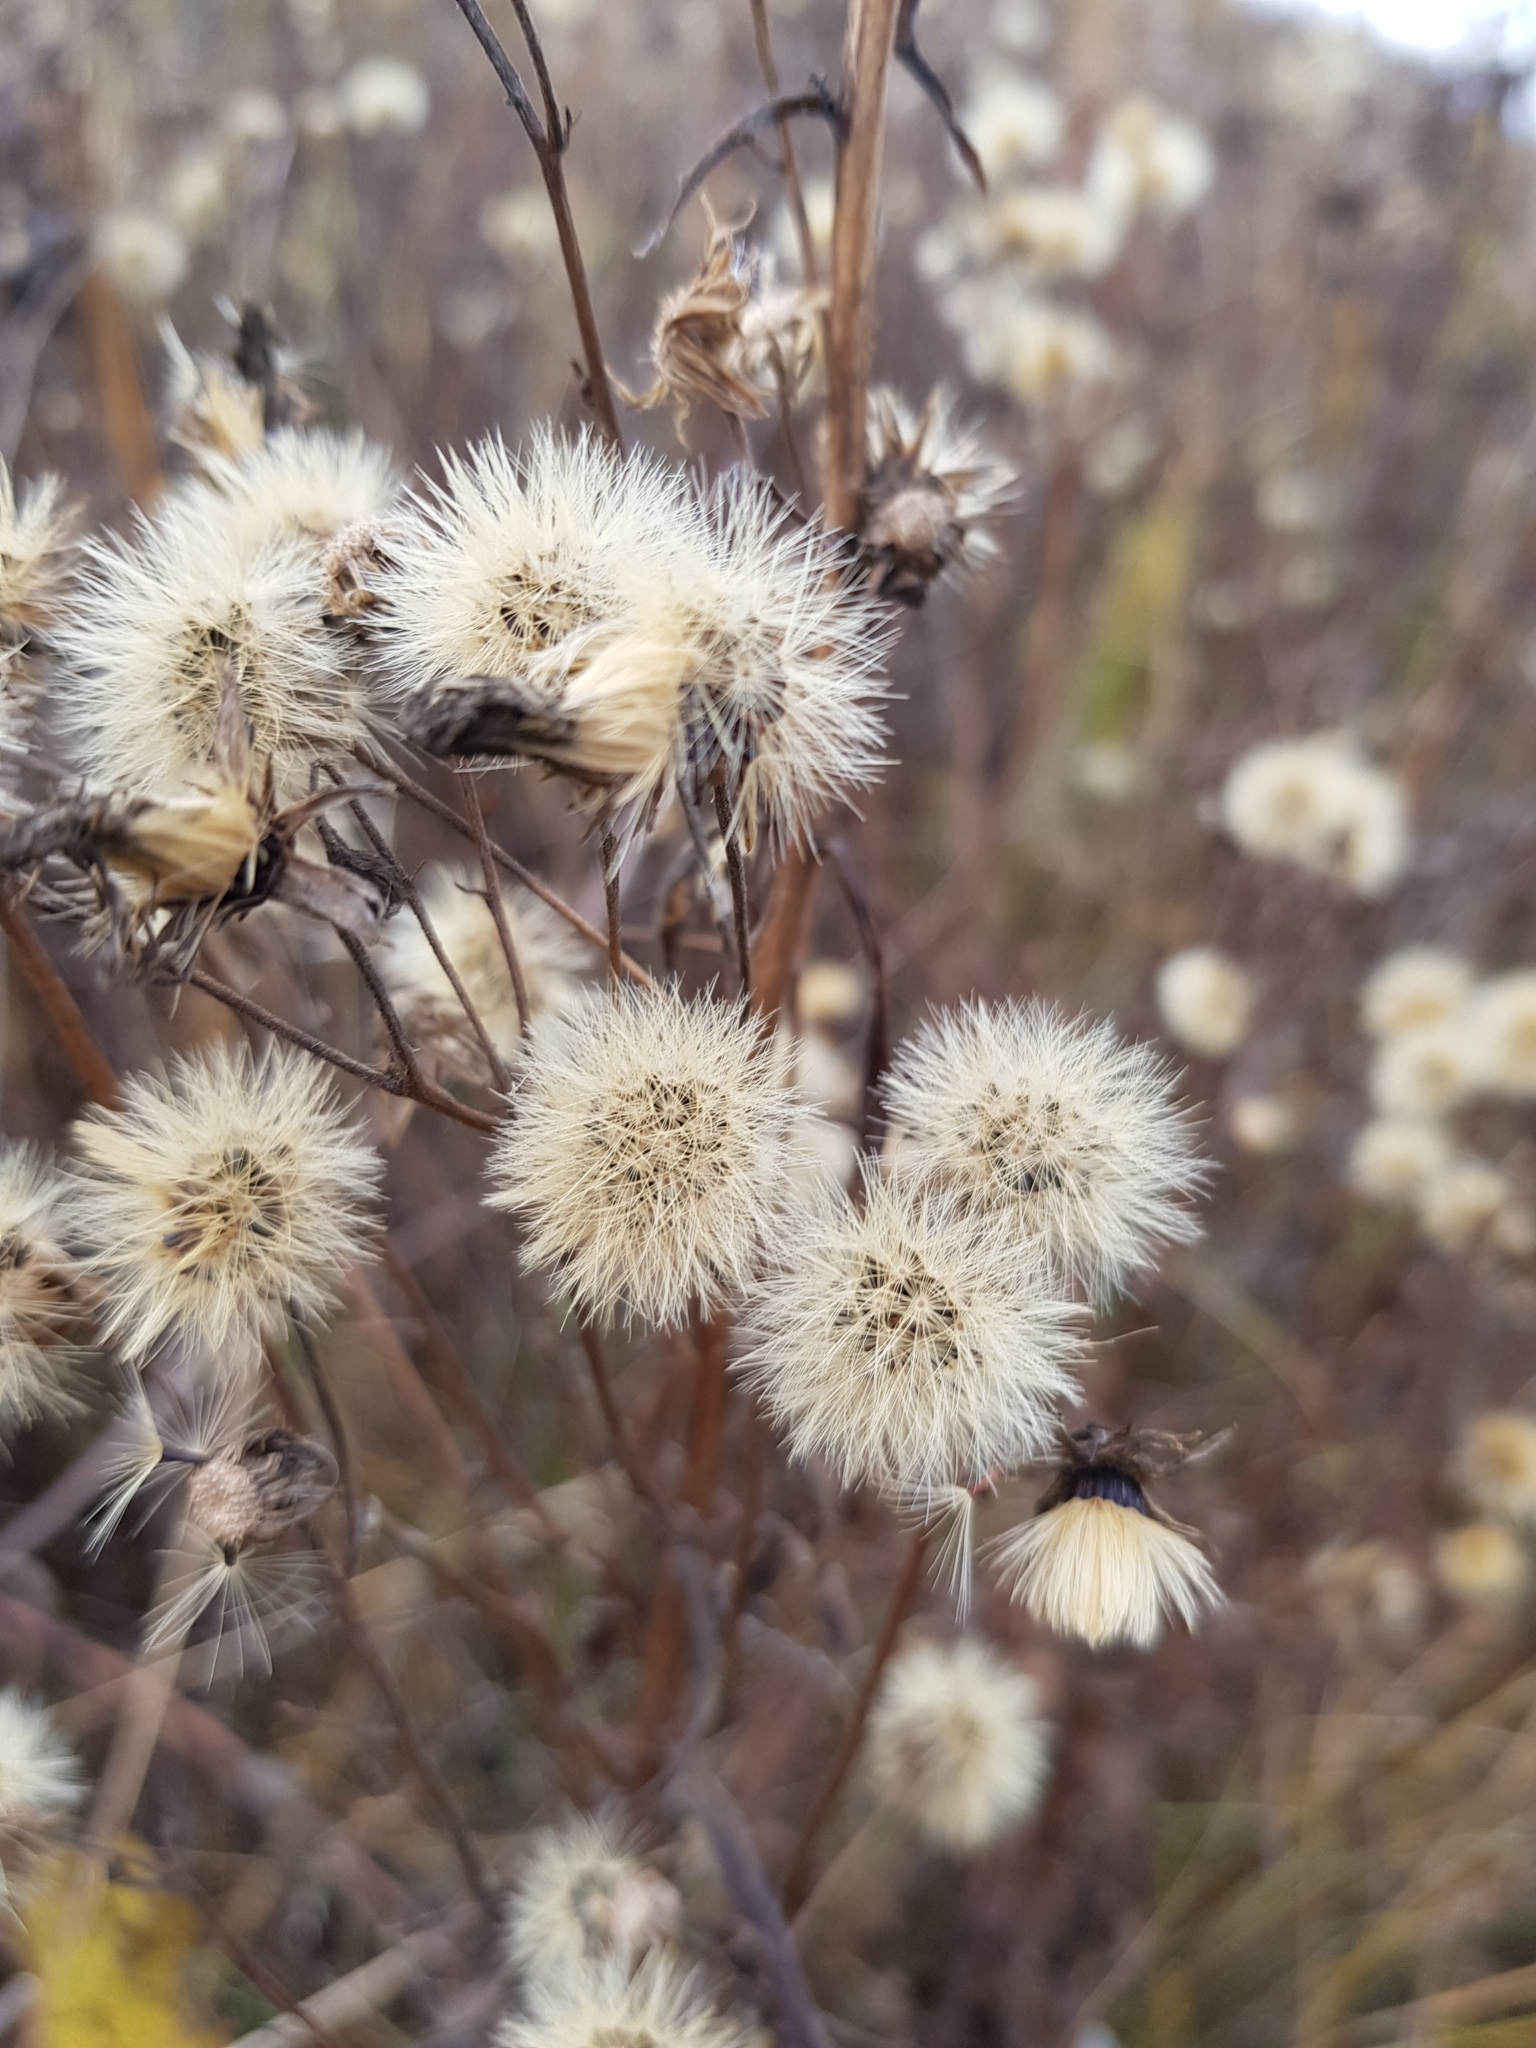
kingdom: Plantae
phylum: Tracheophyta
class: Magnoliopsida
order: Asterales
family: Asteraceae
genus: Hieracium
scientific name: Hieracium umbellatum
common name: Northern hawkweed
